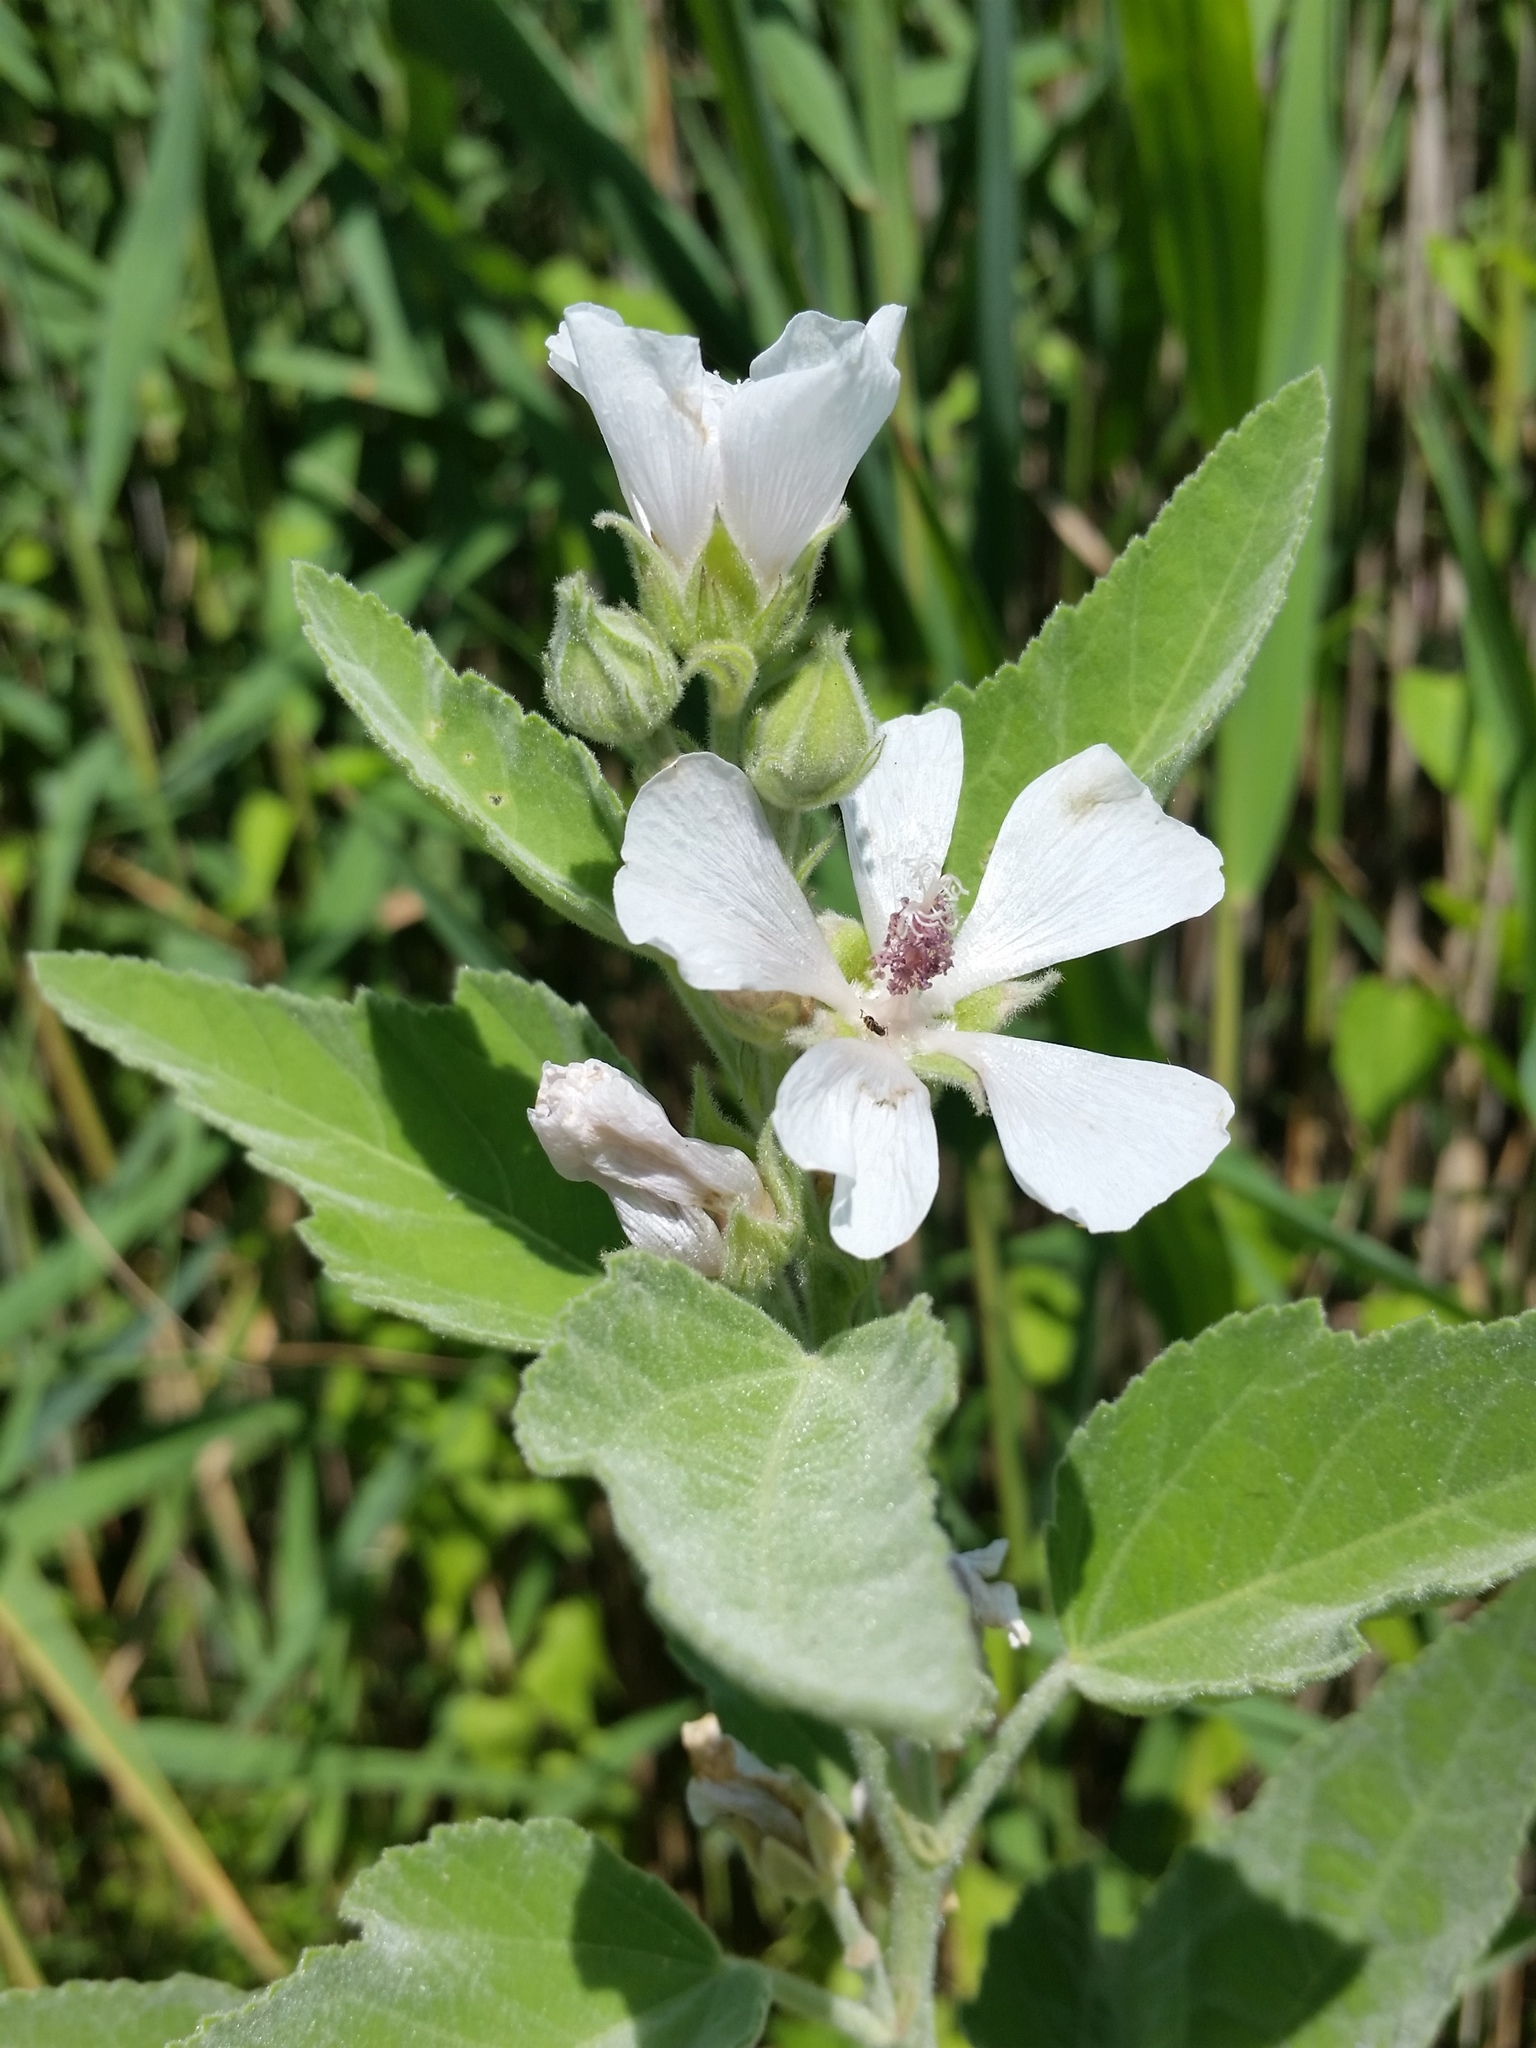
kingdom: Plantae
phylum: Tracheophyta
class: Magnoliopsida
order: Malvales
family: Malvaceae
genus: Althaea
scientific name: Althaea officinalis
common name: Marsh-mallow
